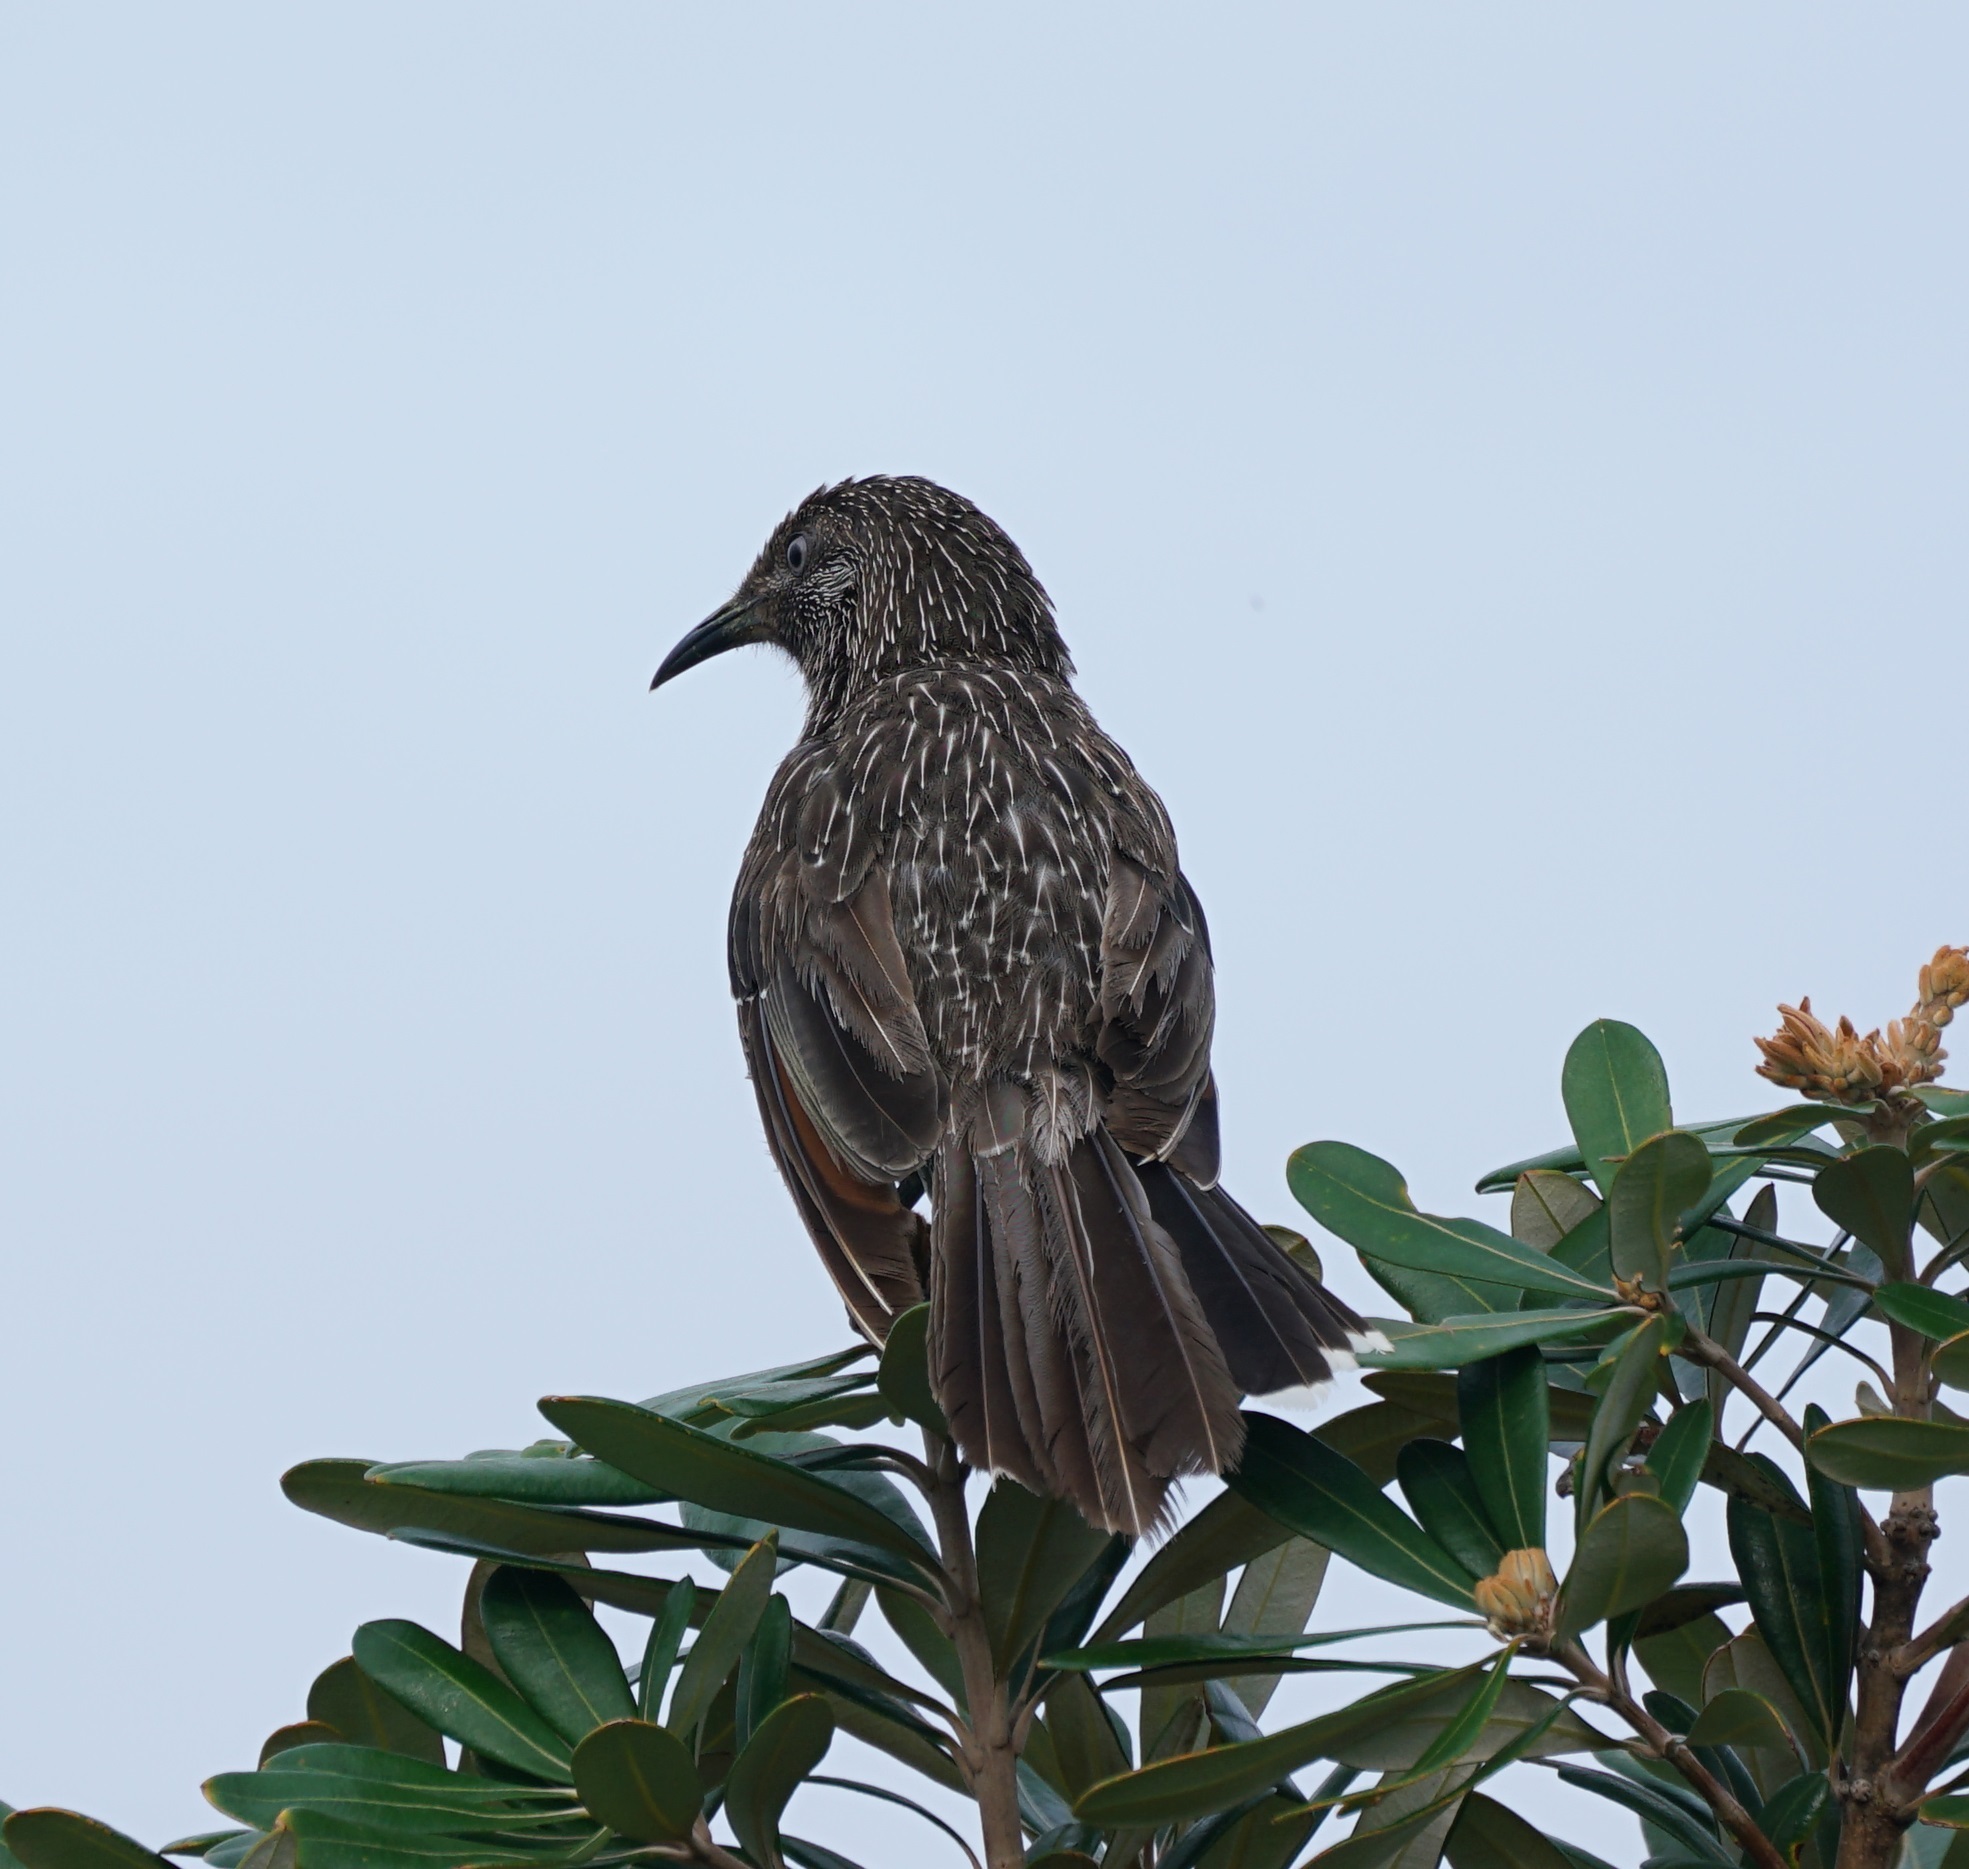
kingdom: Animalia
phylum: Chordata
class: Aves
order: Passeriformes
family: Meliphagidae
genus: Anthochaera
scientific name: Anthochaera chrysoptera
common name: Little wattlebird
